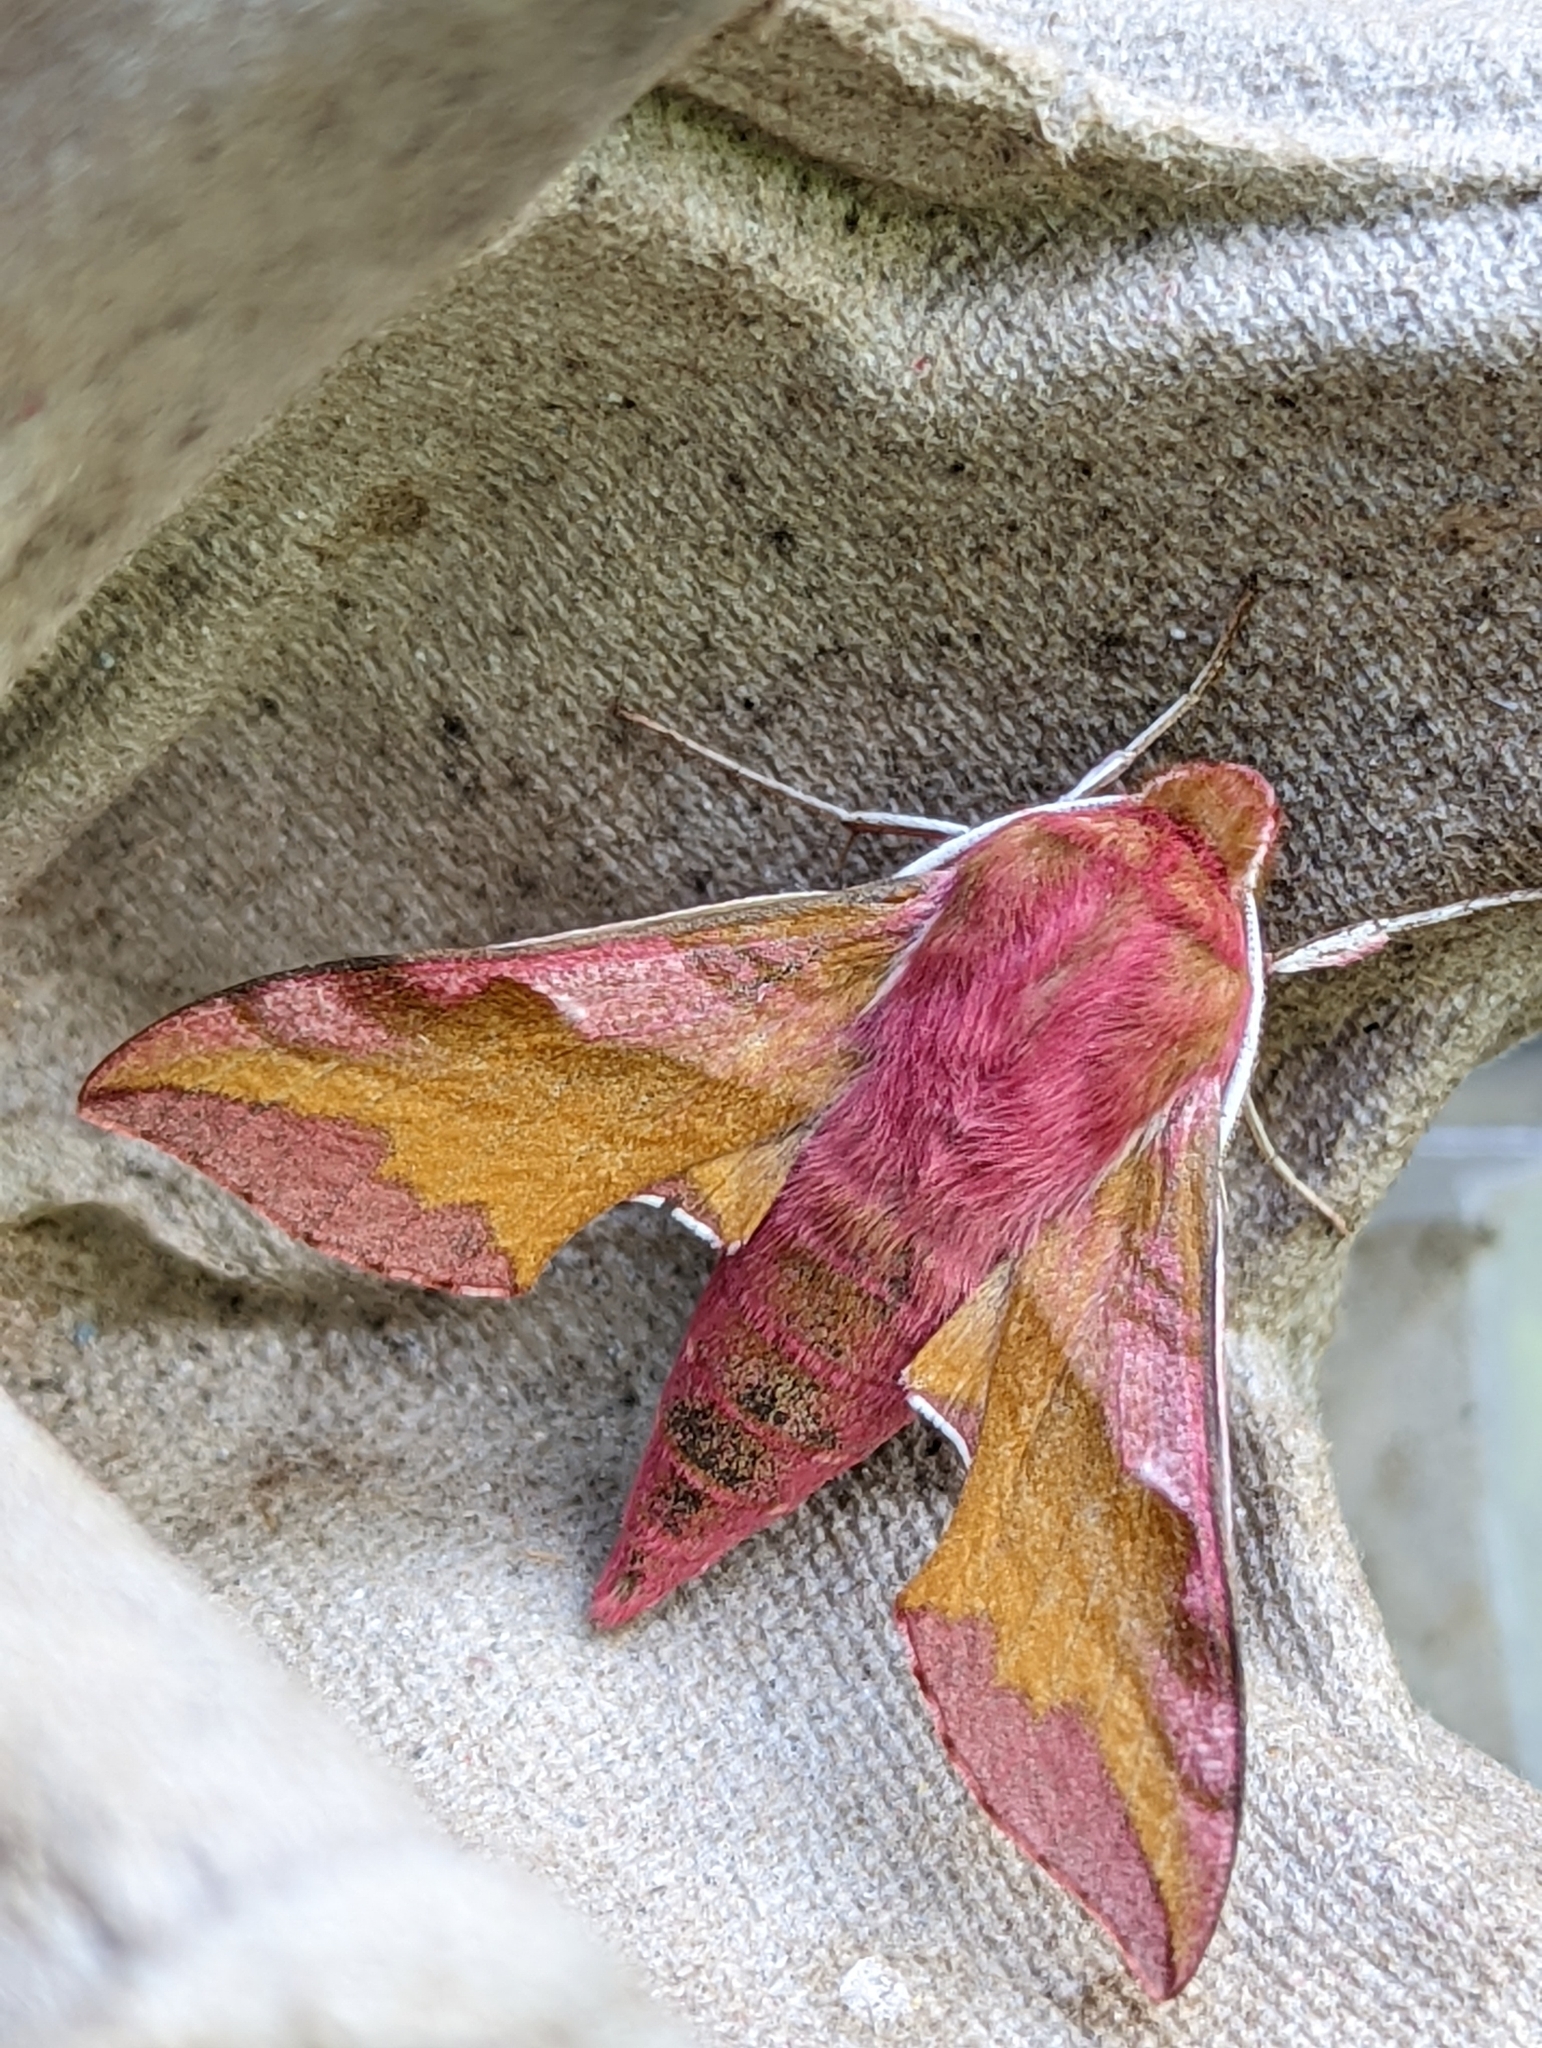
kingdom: Animalia
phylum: Arthropoda
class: Insecta
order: Lepidoptera
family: Sphingidae
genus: Deilephila
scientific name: Deilephila porcellus
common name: Small elephant hawk-moth
